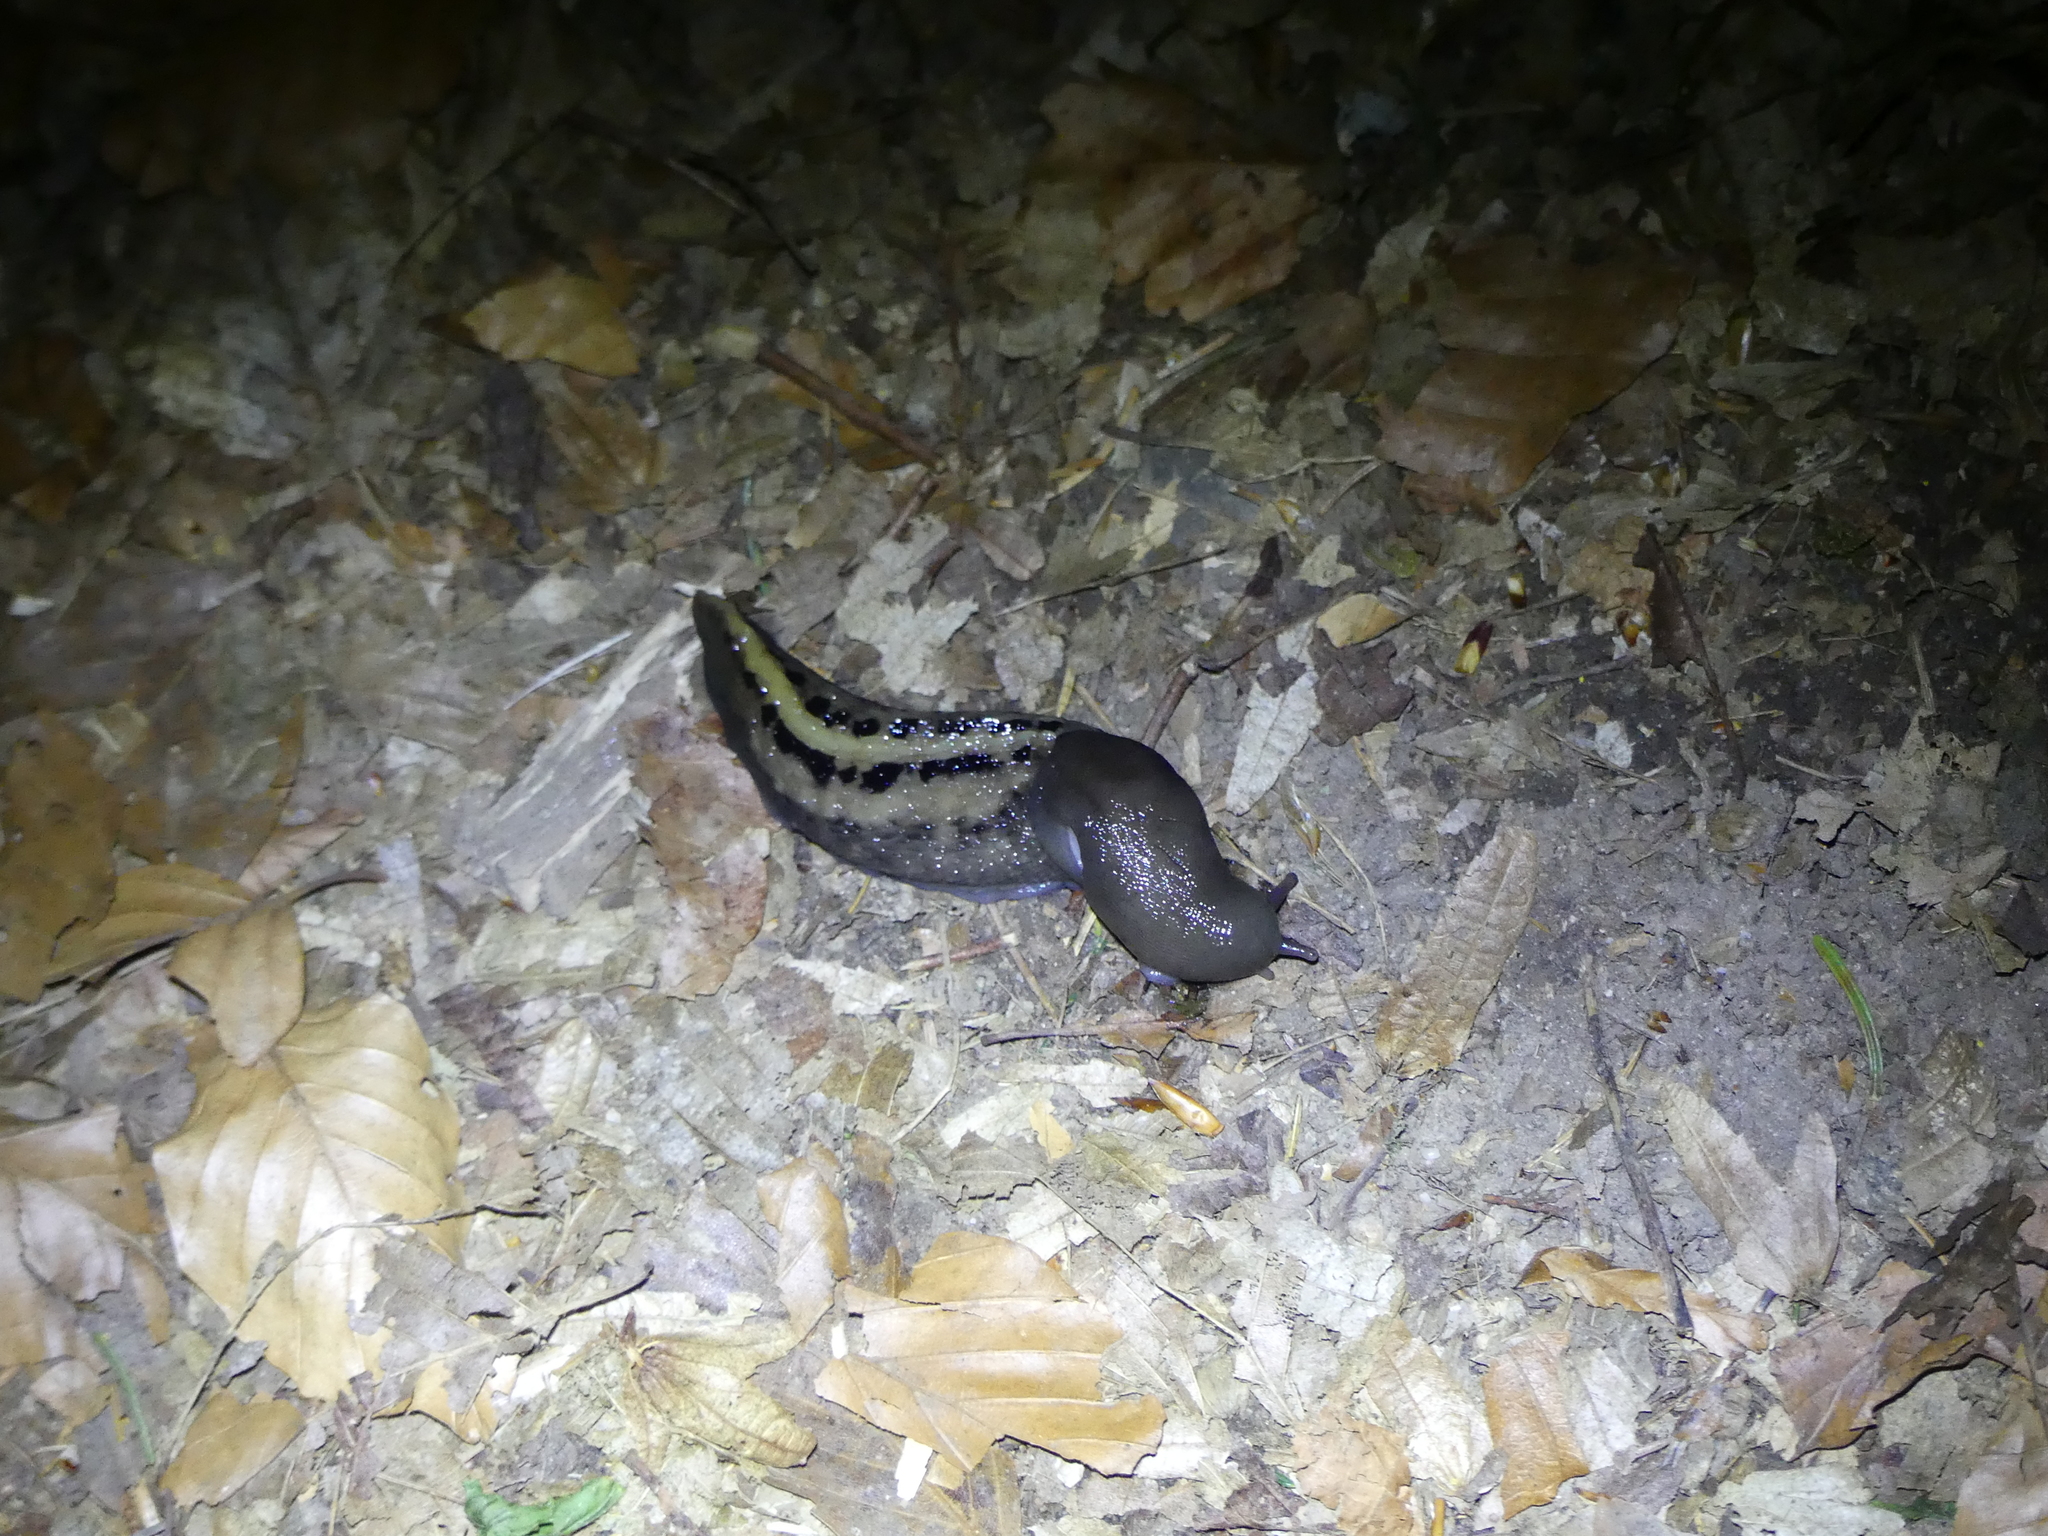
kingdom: Animalia
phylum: Mollusca
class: Gastropoda
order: Stylommatophora
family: Limacidae
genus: Limax
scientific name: Limax cinereoniger
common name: Ash-black slug
